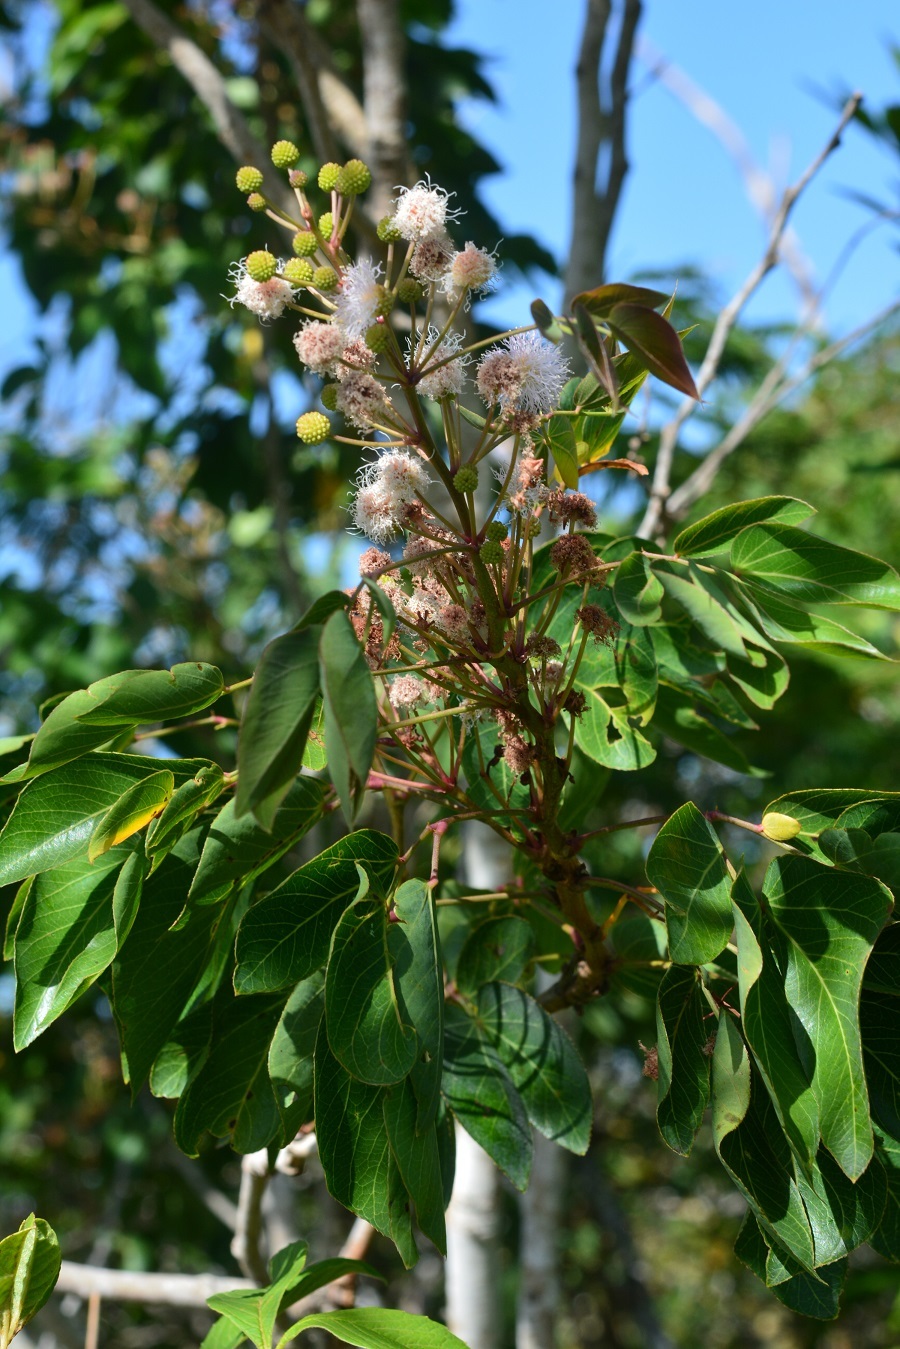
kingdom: Plantae
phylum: Tracheophyta
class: Magnoliopsida
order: Fabales
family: Fabaceae
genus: Mimosa
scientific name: Mimosa lactiflua
